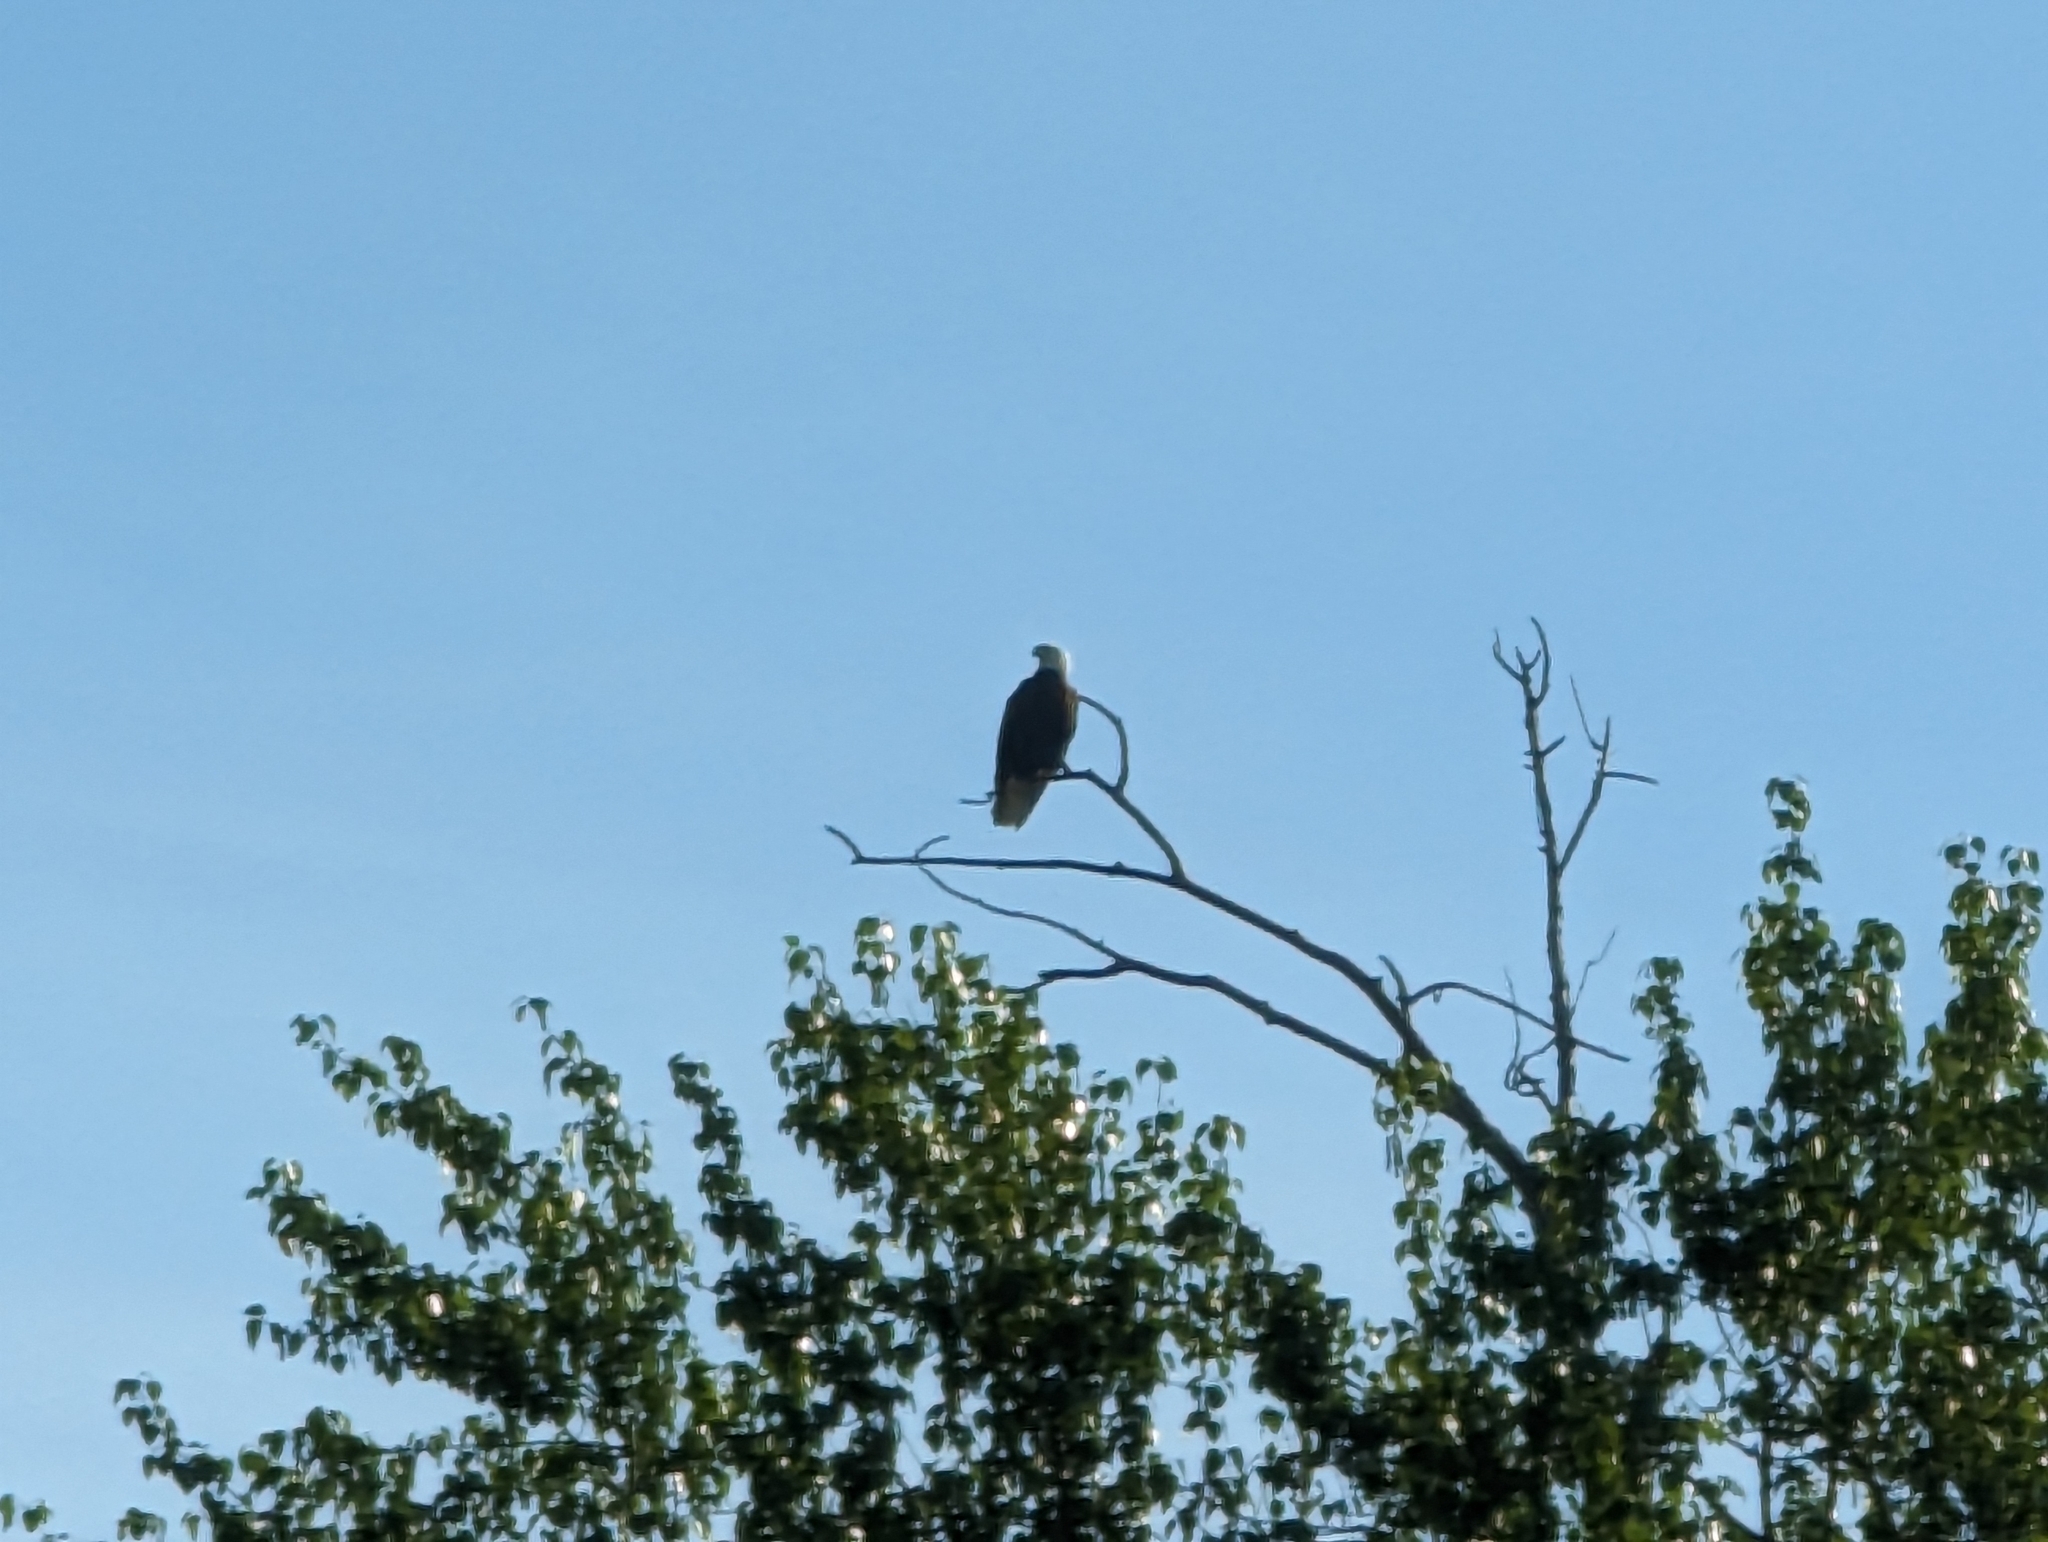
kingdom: Animalia
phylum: Chordata
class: Aves
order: Accipitriformes
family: Accipitridae
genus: Haliaeetus
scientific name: Haliaeetus leucocephalus
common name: Bald eagle
